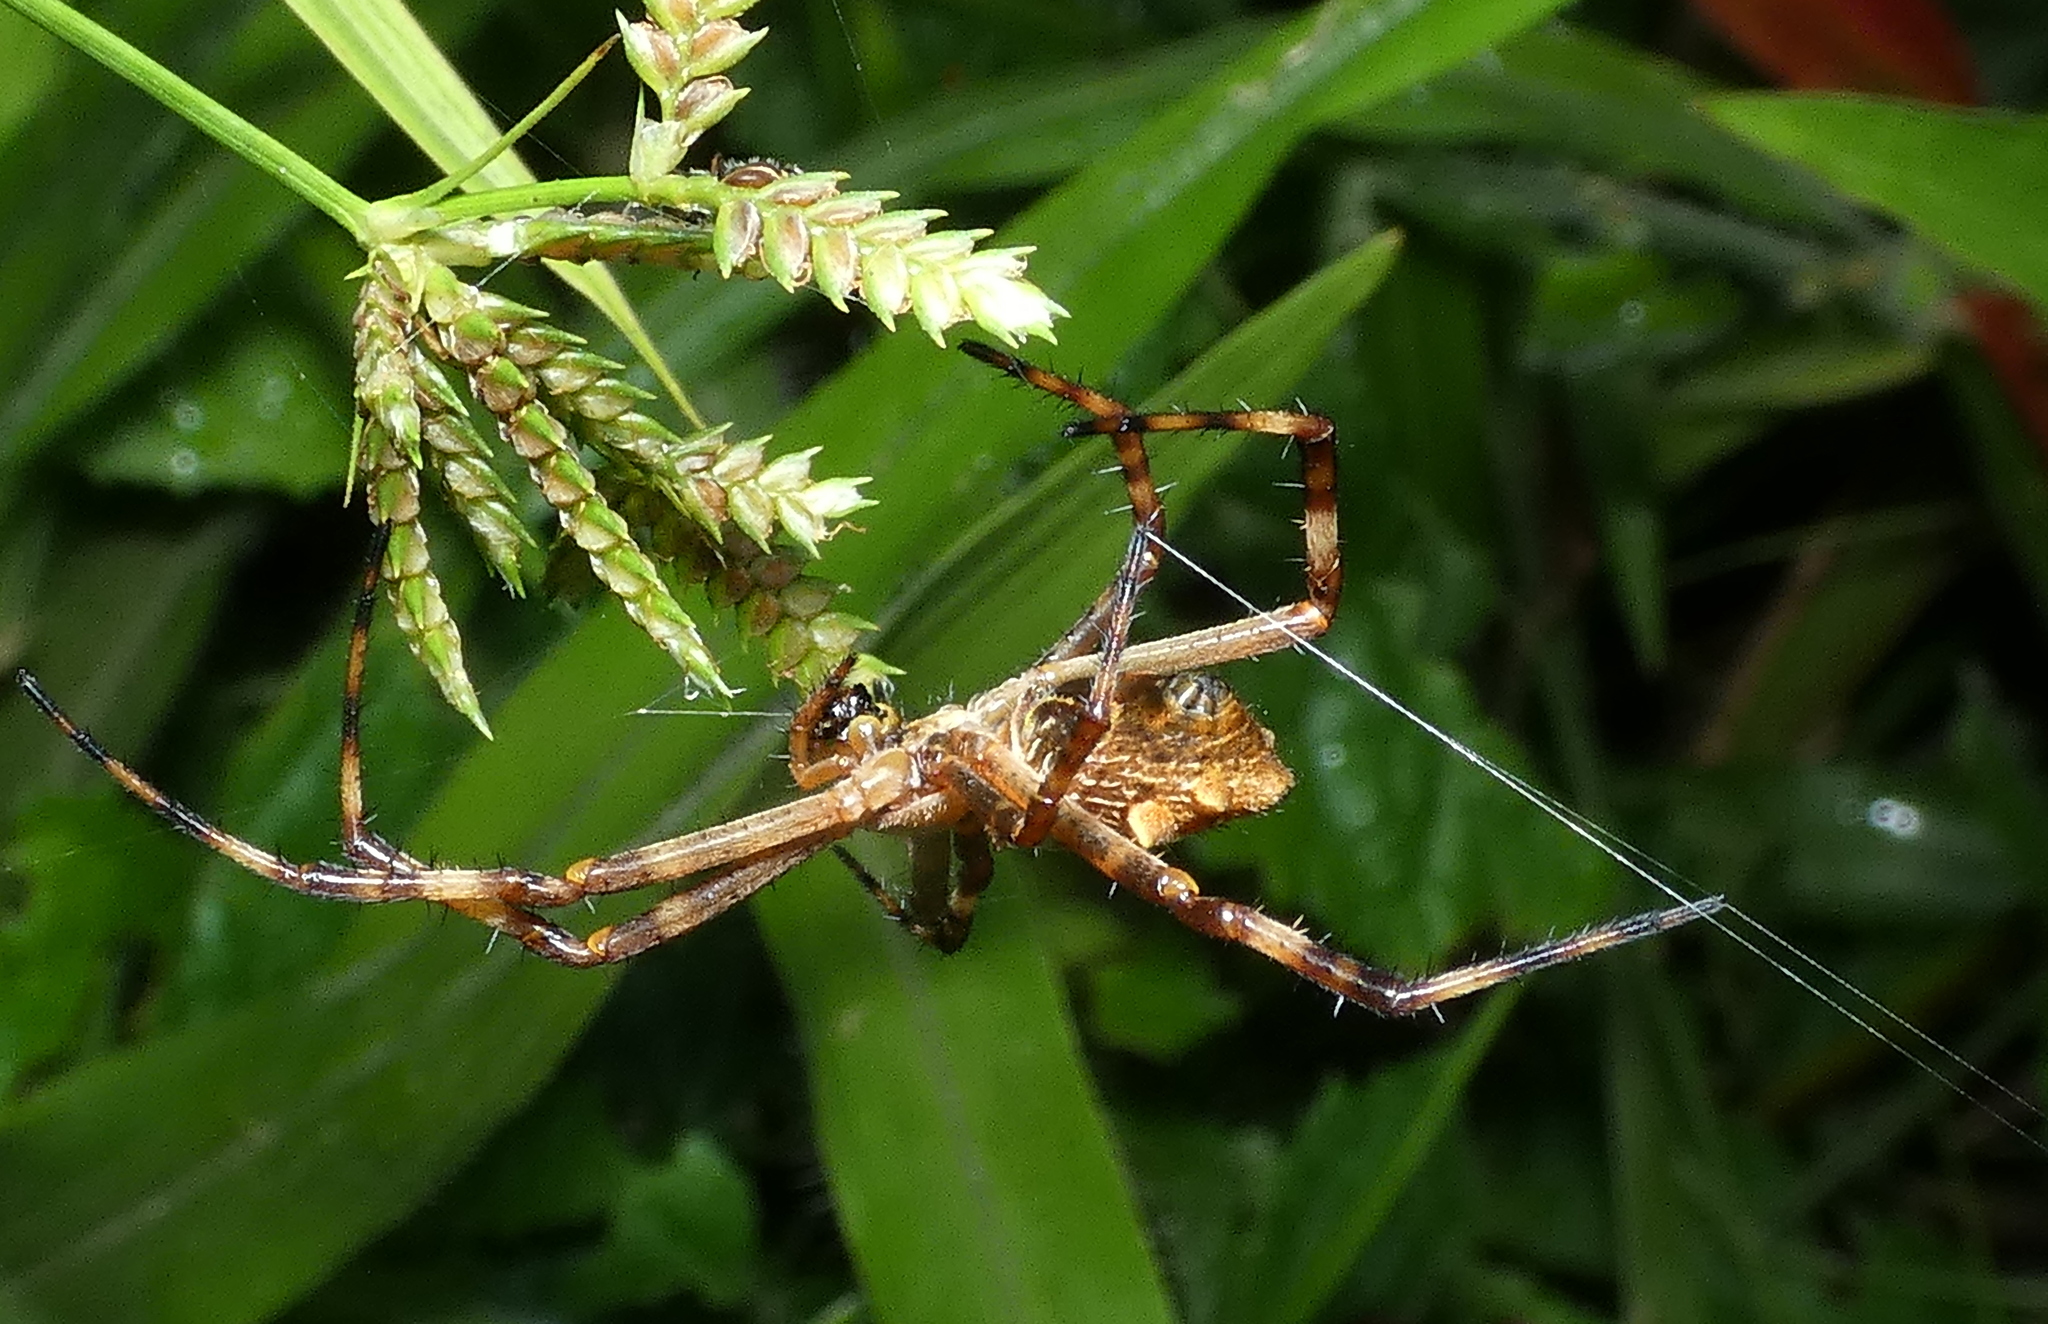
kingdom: Animalia
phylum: Arthropoda
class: Arachnida
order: Araneae
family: Araneidae
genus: Argiope
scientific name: Argiope argentata
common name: Orb weavers
